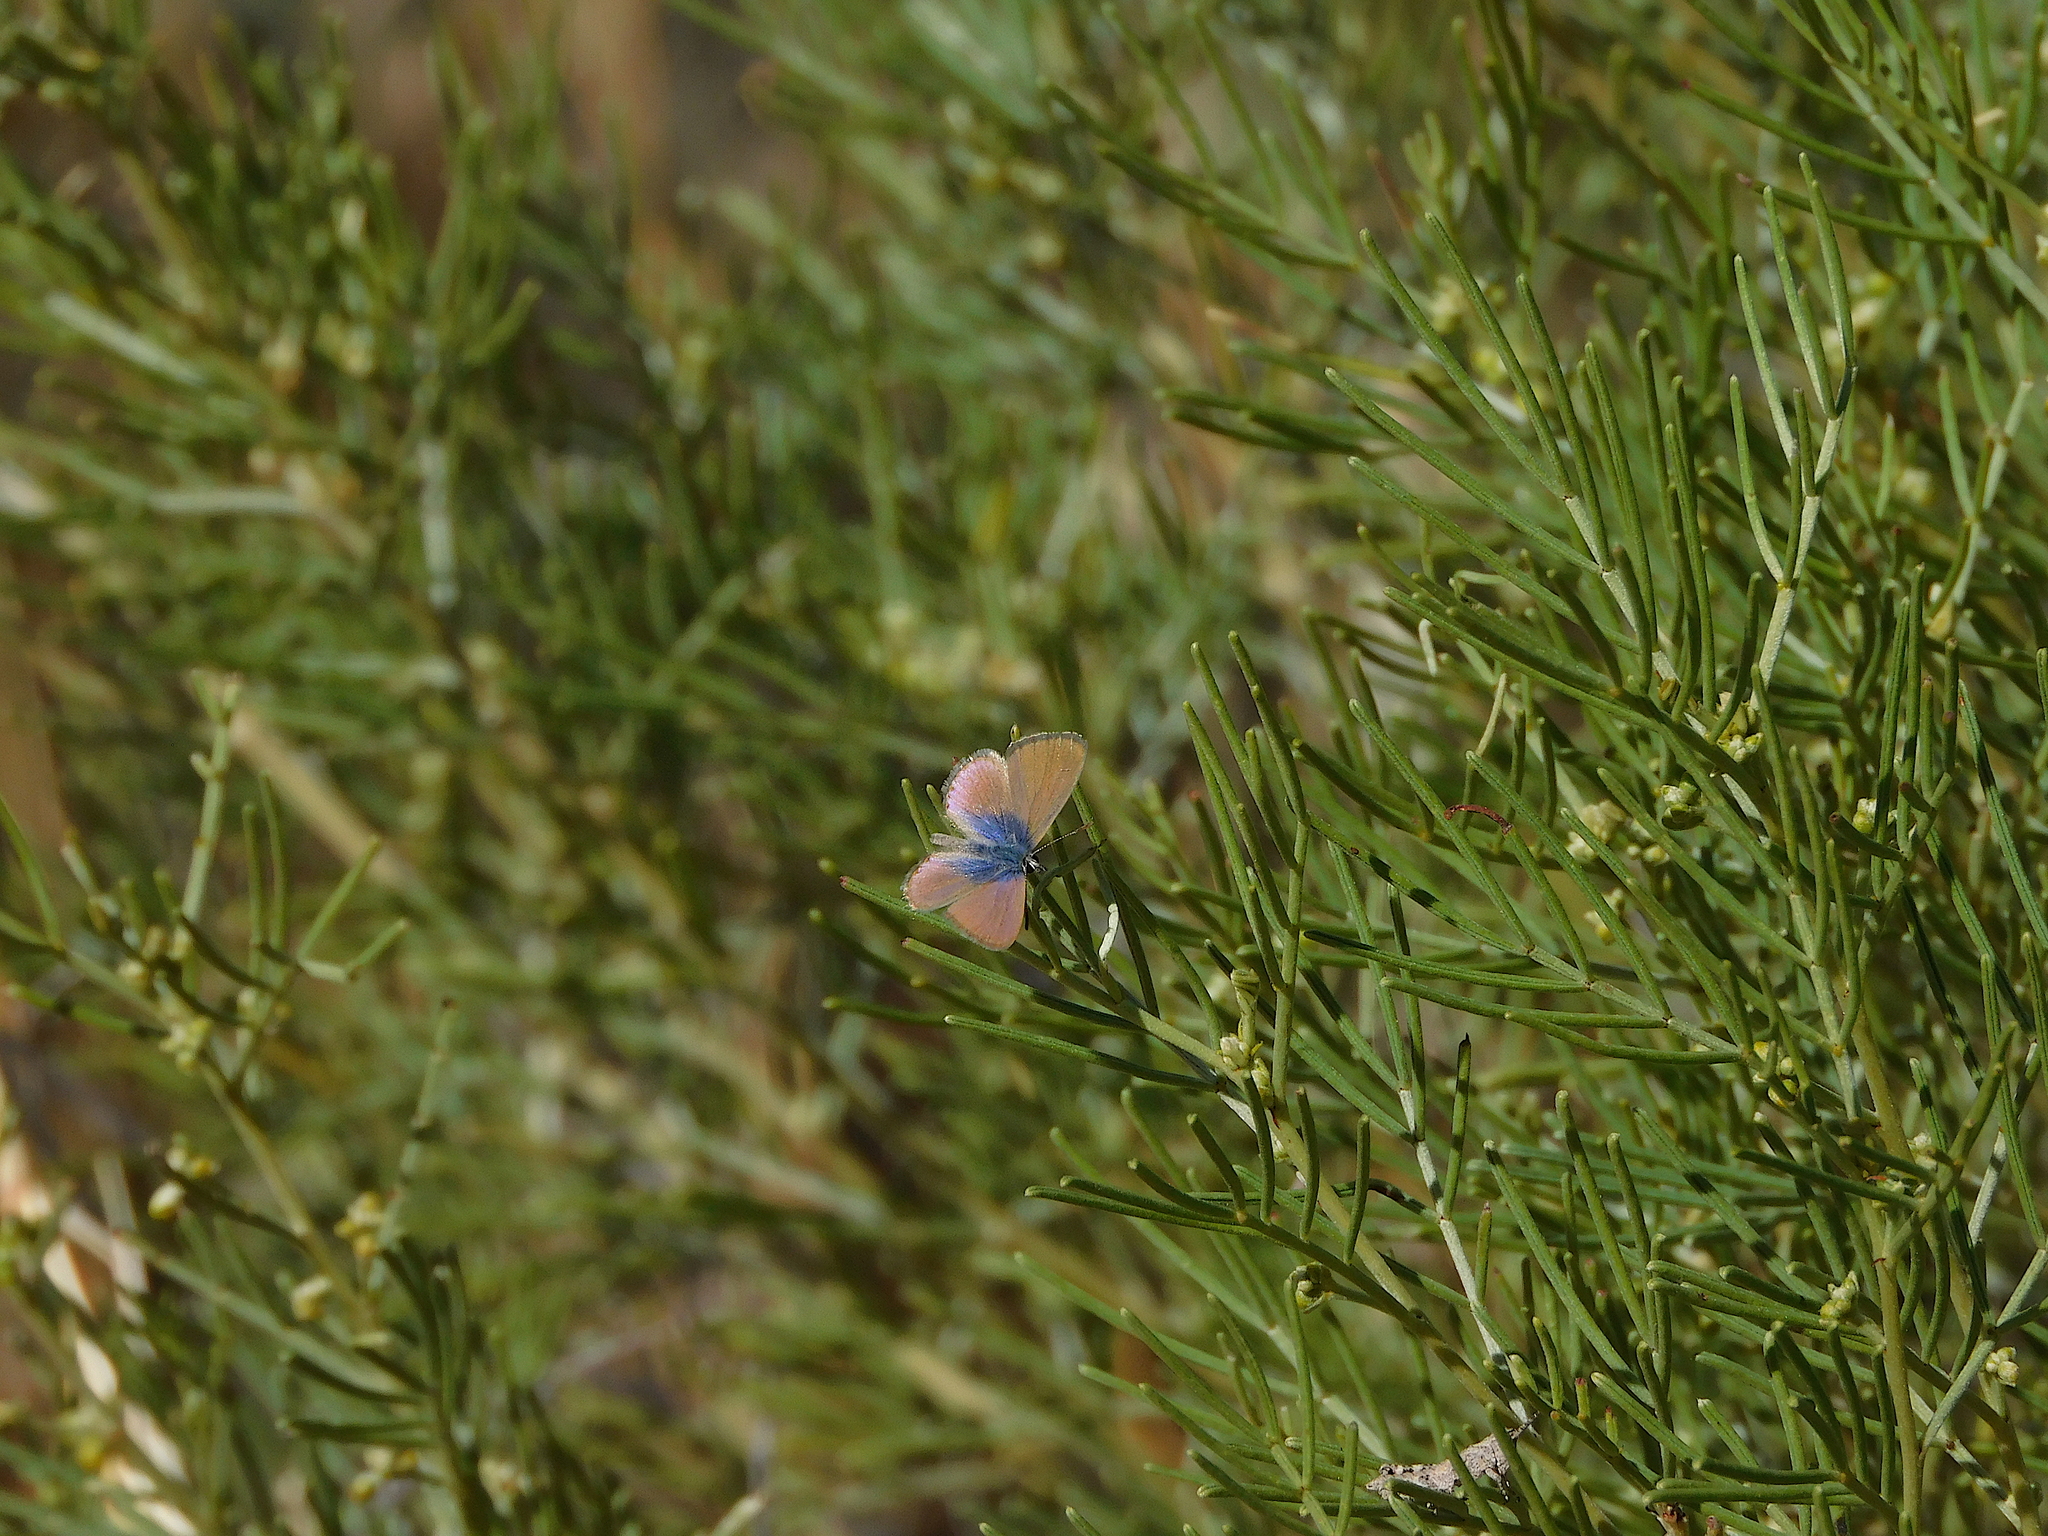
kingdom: Animalia
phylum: Arthropoda
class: Insecta
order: Lepidoptera
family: Lycaenidae
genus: Nacaduba
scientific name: Nacaduba biocellata
